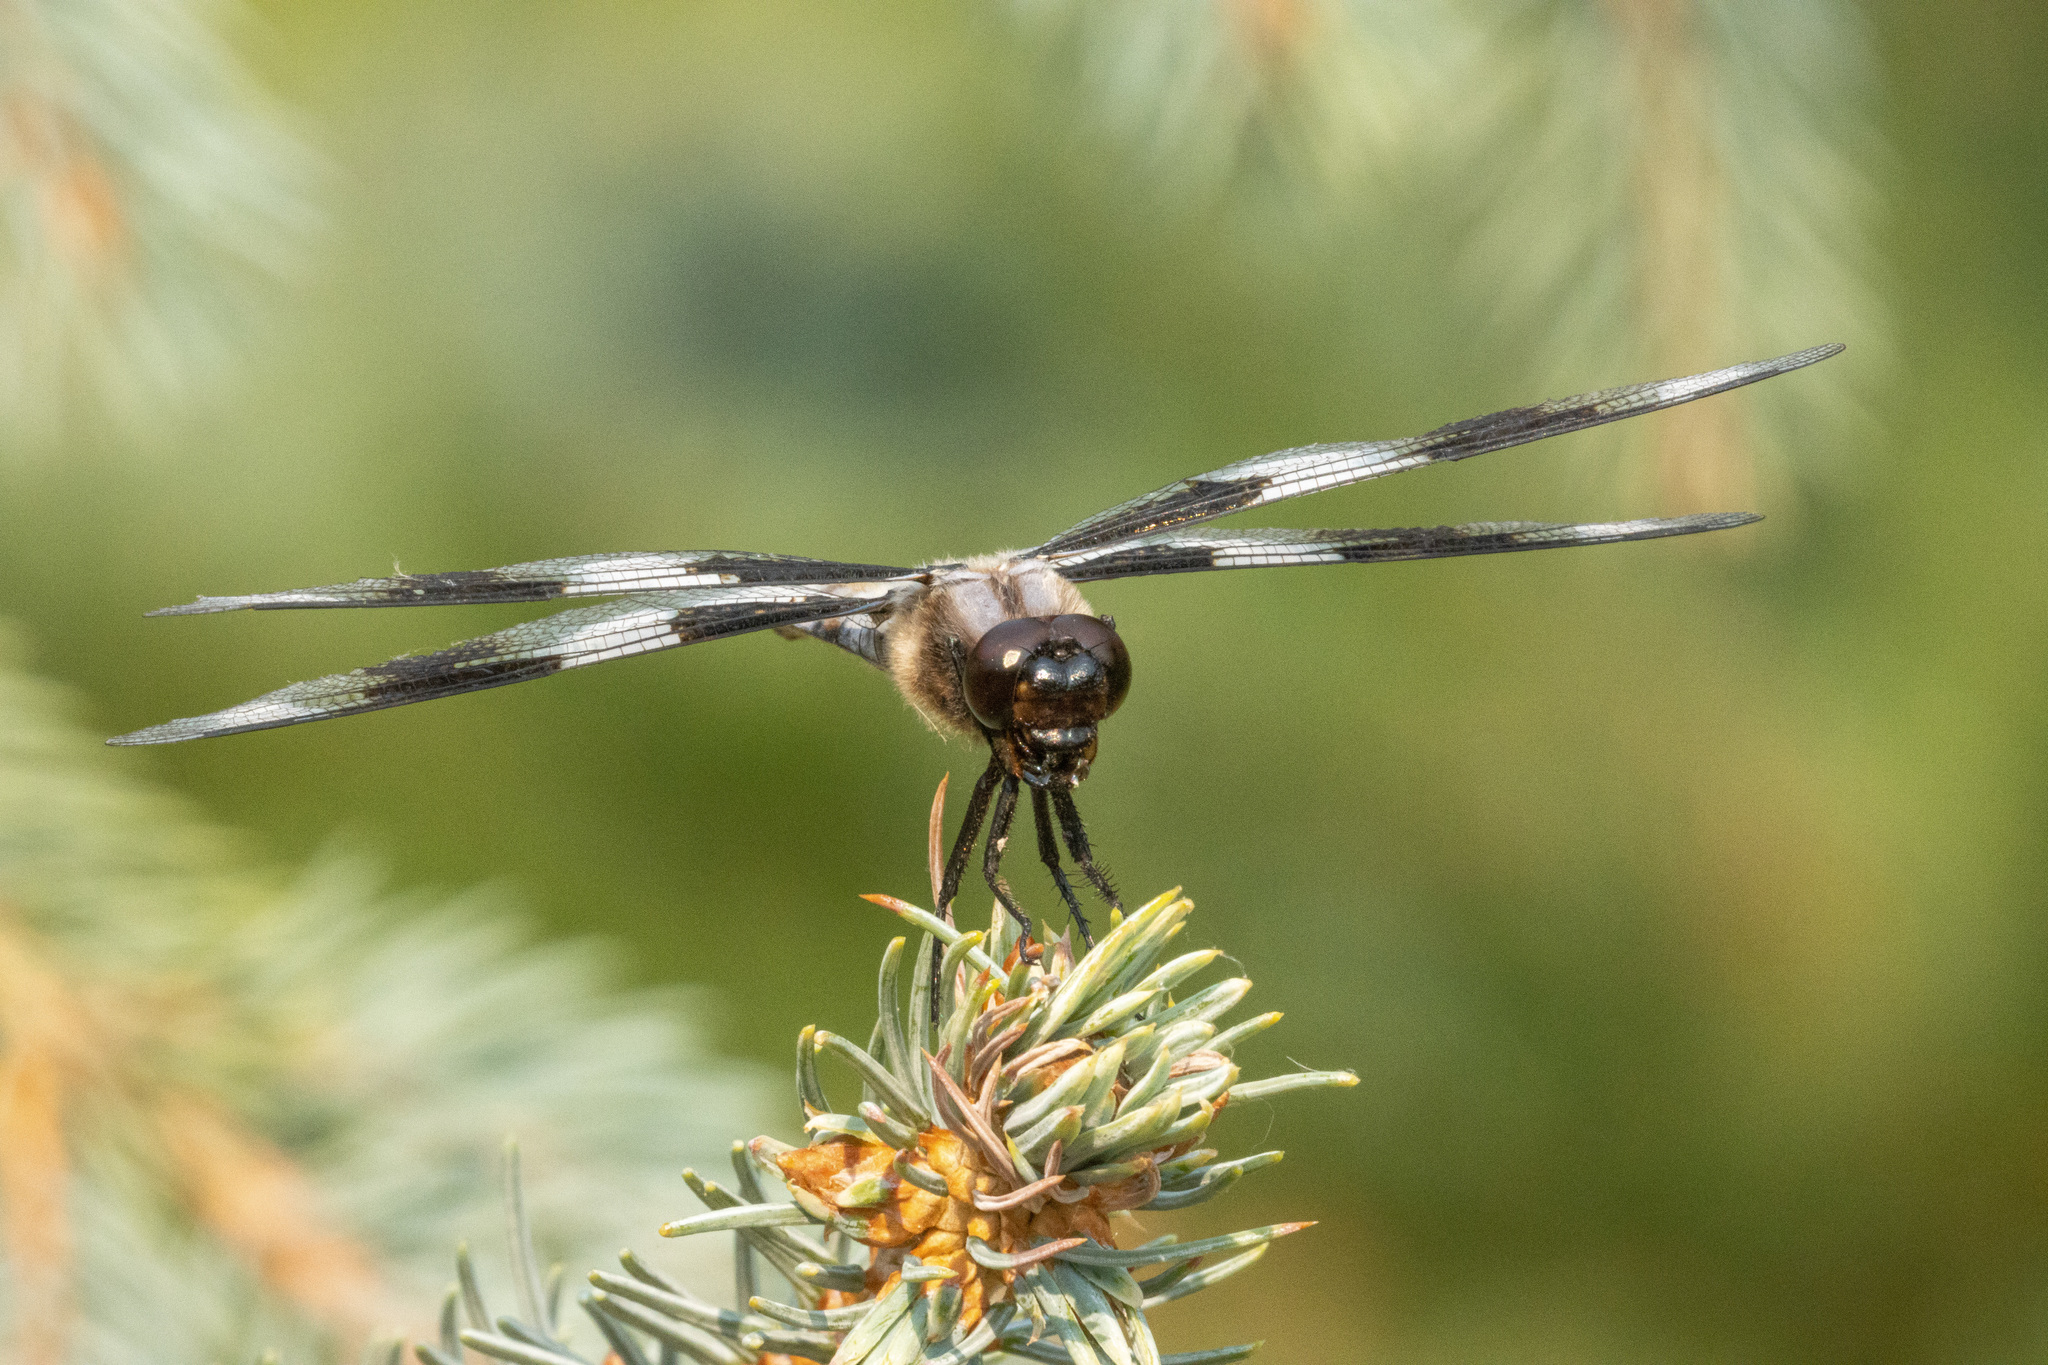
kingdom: Animalia
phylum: Arthropoda
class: Insecta
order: Odonata
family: Libellulidae
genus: Libellula
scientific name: Libellula forensis
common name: Eight-spotted skimmer
